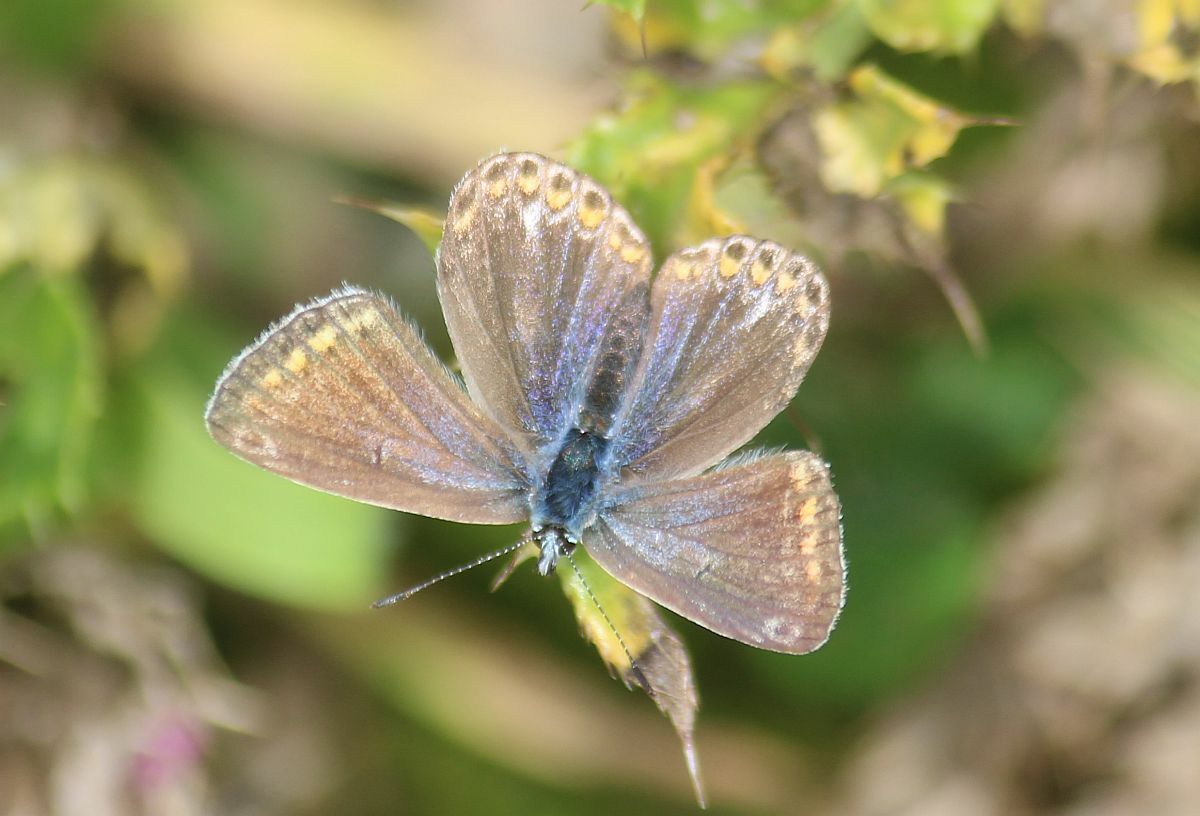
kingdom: Animalia
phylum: Arthropoda
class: Insecta
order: Lepidoptera
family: Lycaenidae
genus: Polyommatus
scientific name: Polyommatus icarus
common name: Common blue
